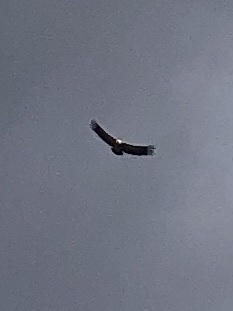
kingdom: Animalia
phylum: Chordata
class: Aves
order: Accipitriformes
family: Accipitridae
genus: Gyps
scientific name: Gyps fulvus
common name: Griffon vulture
